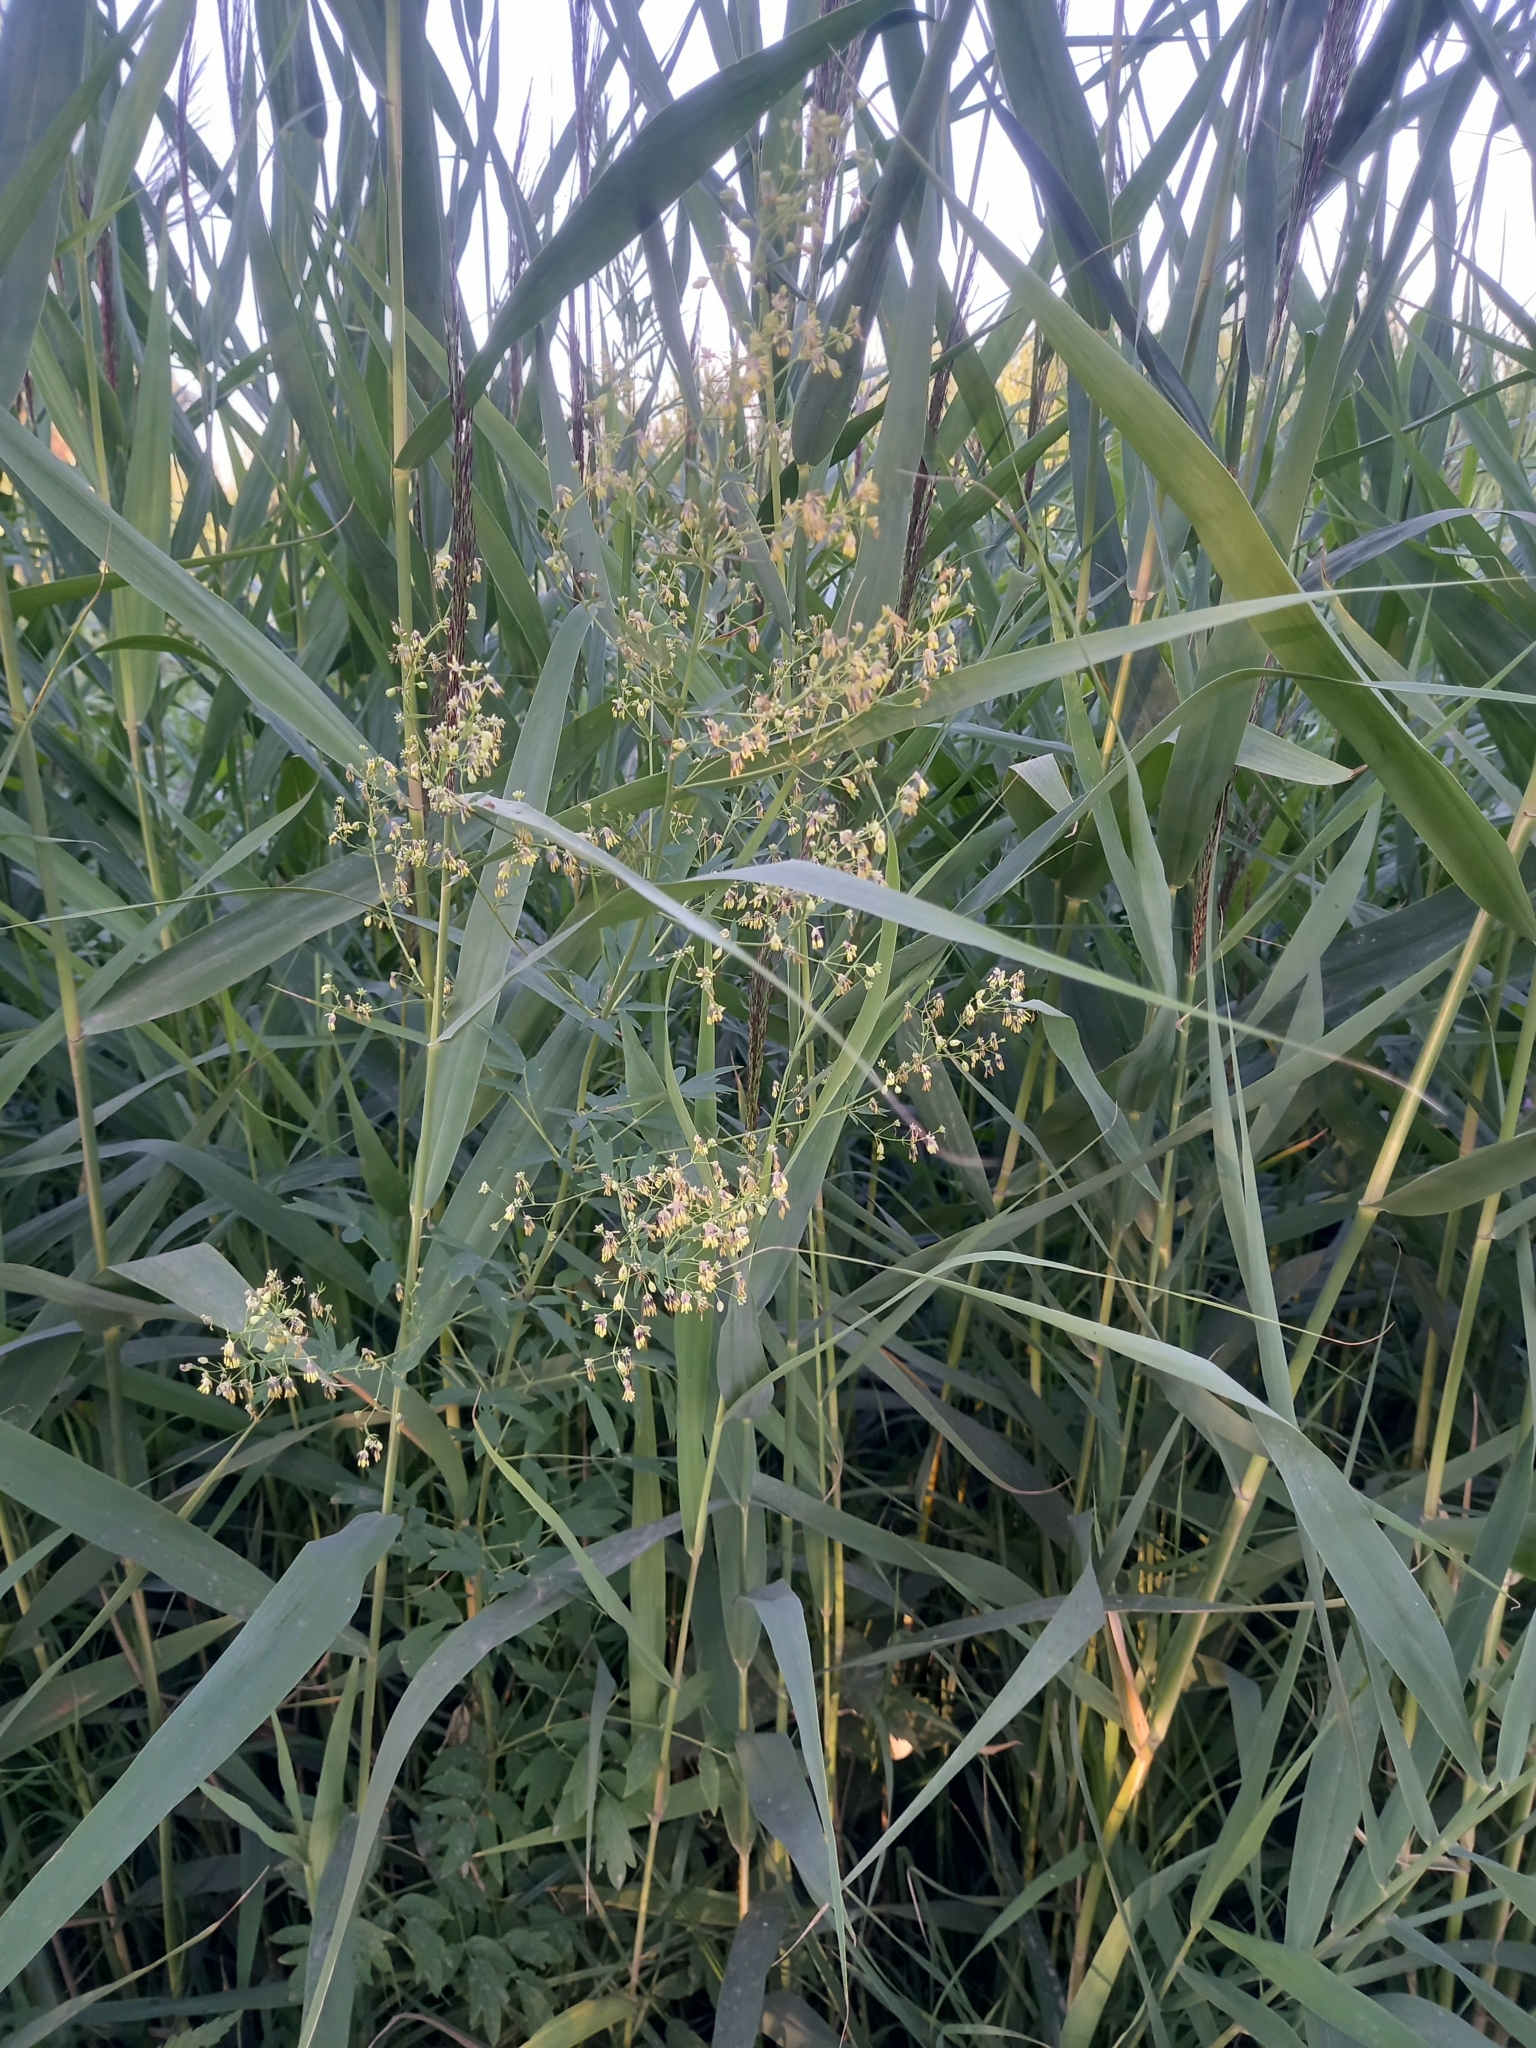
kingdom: Plantae
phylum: Tracheophyta
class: Magnoliopsida
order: Ranunculales
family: Ranunculaceae
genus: Thalictrum
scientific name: Thalictrum simplex
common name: Small meadow-rue
